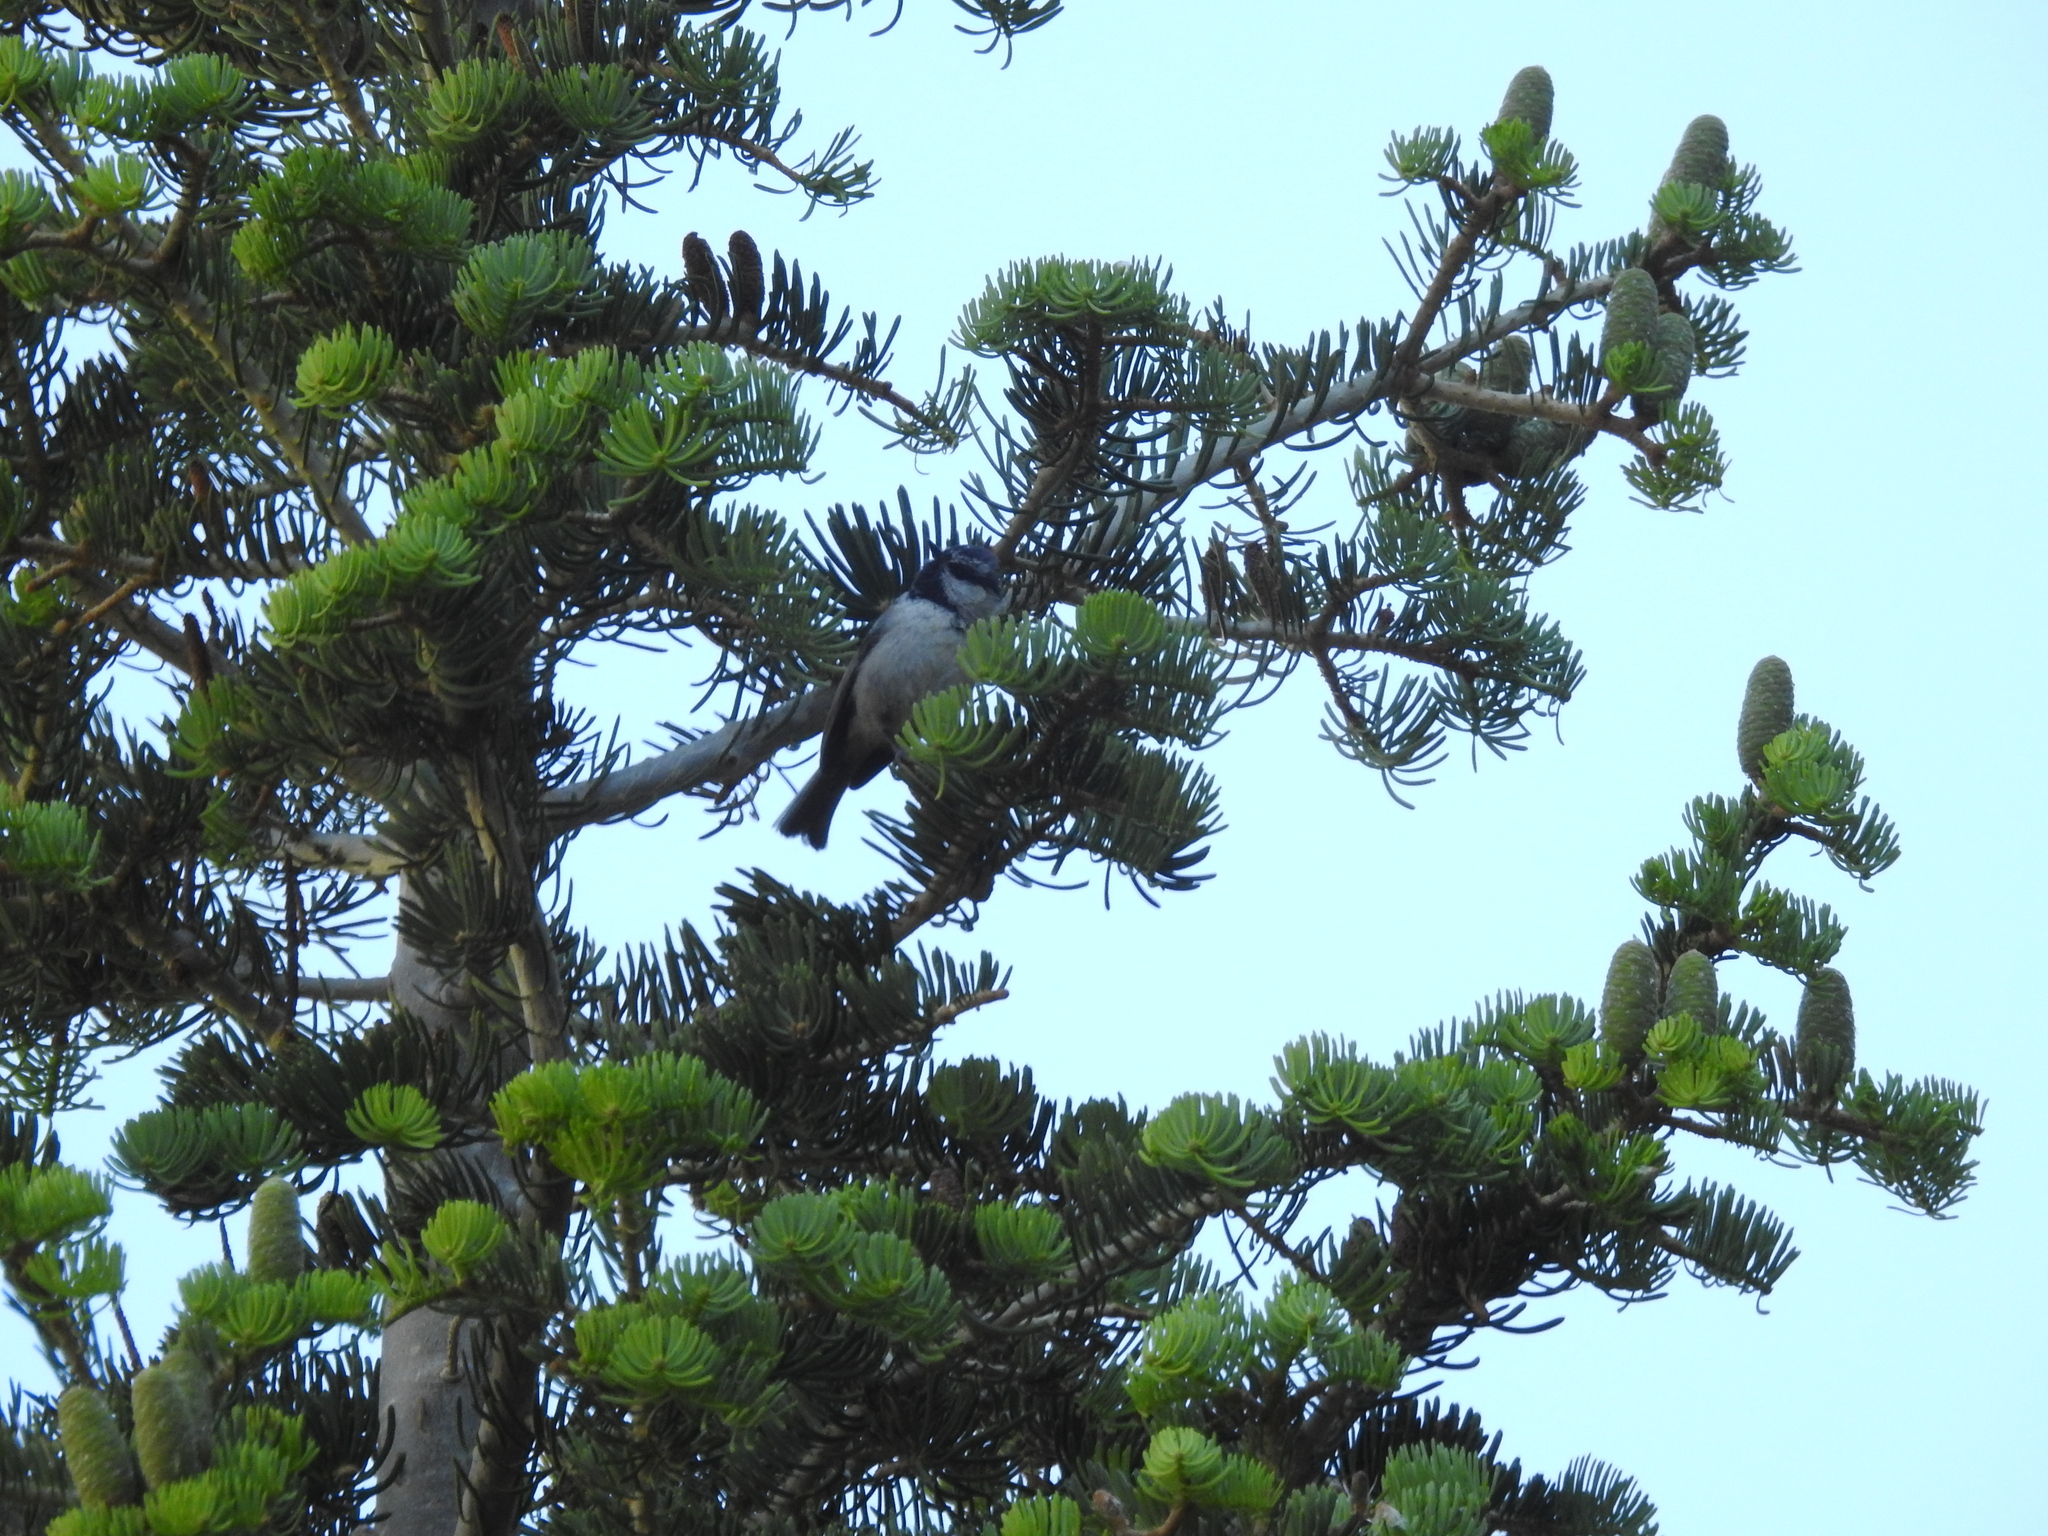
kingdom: Animalia
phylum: Chordata
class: Aves
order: Passeriformes
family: Paridae
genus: Poecile
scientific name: Poecile gambeli
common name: Mountain chickadee
